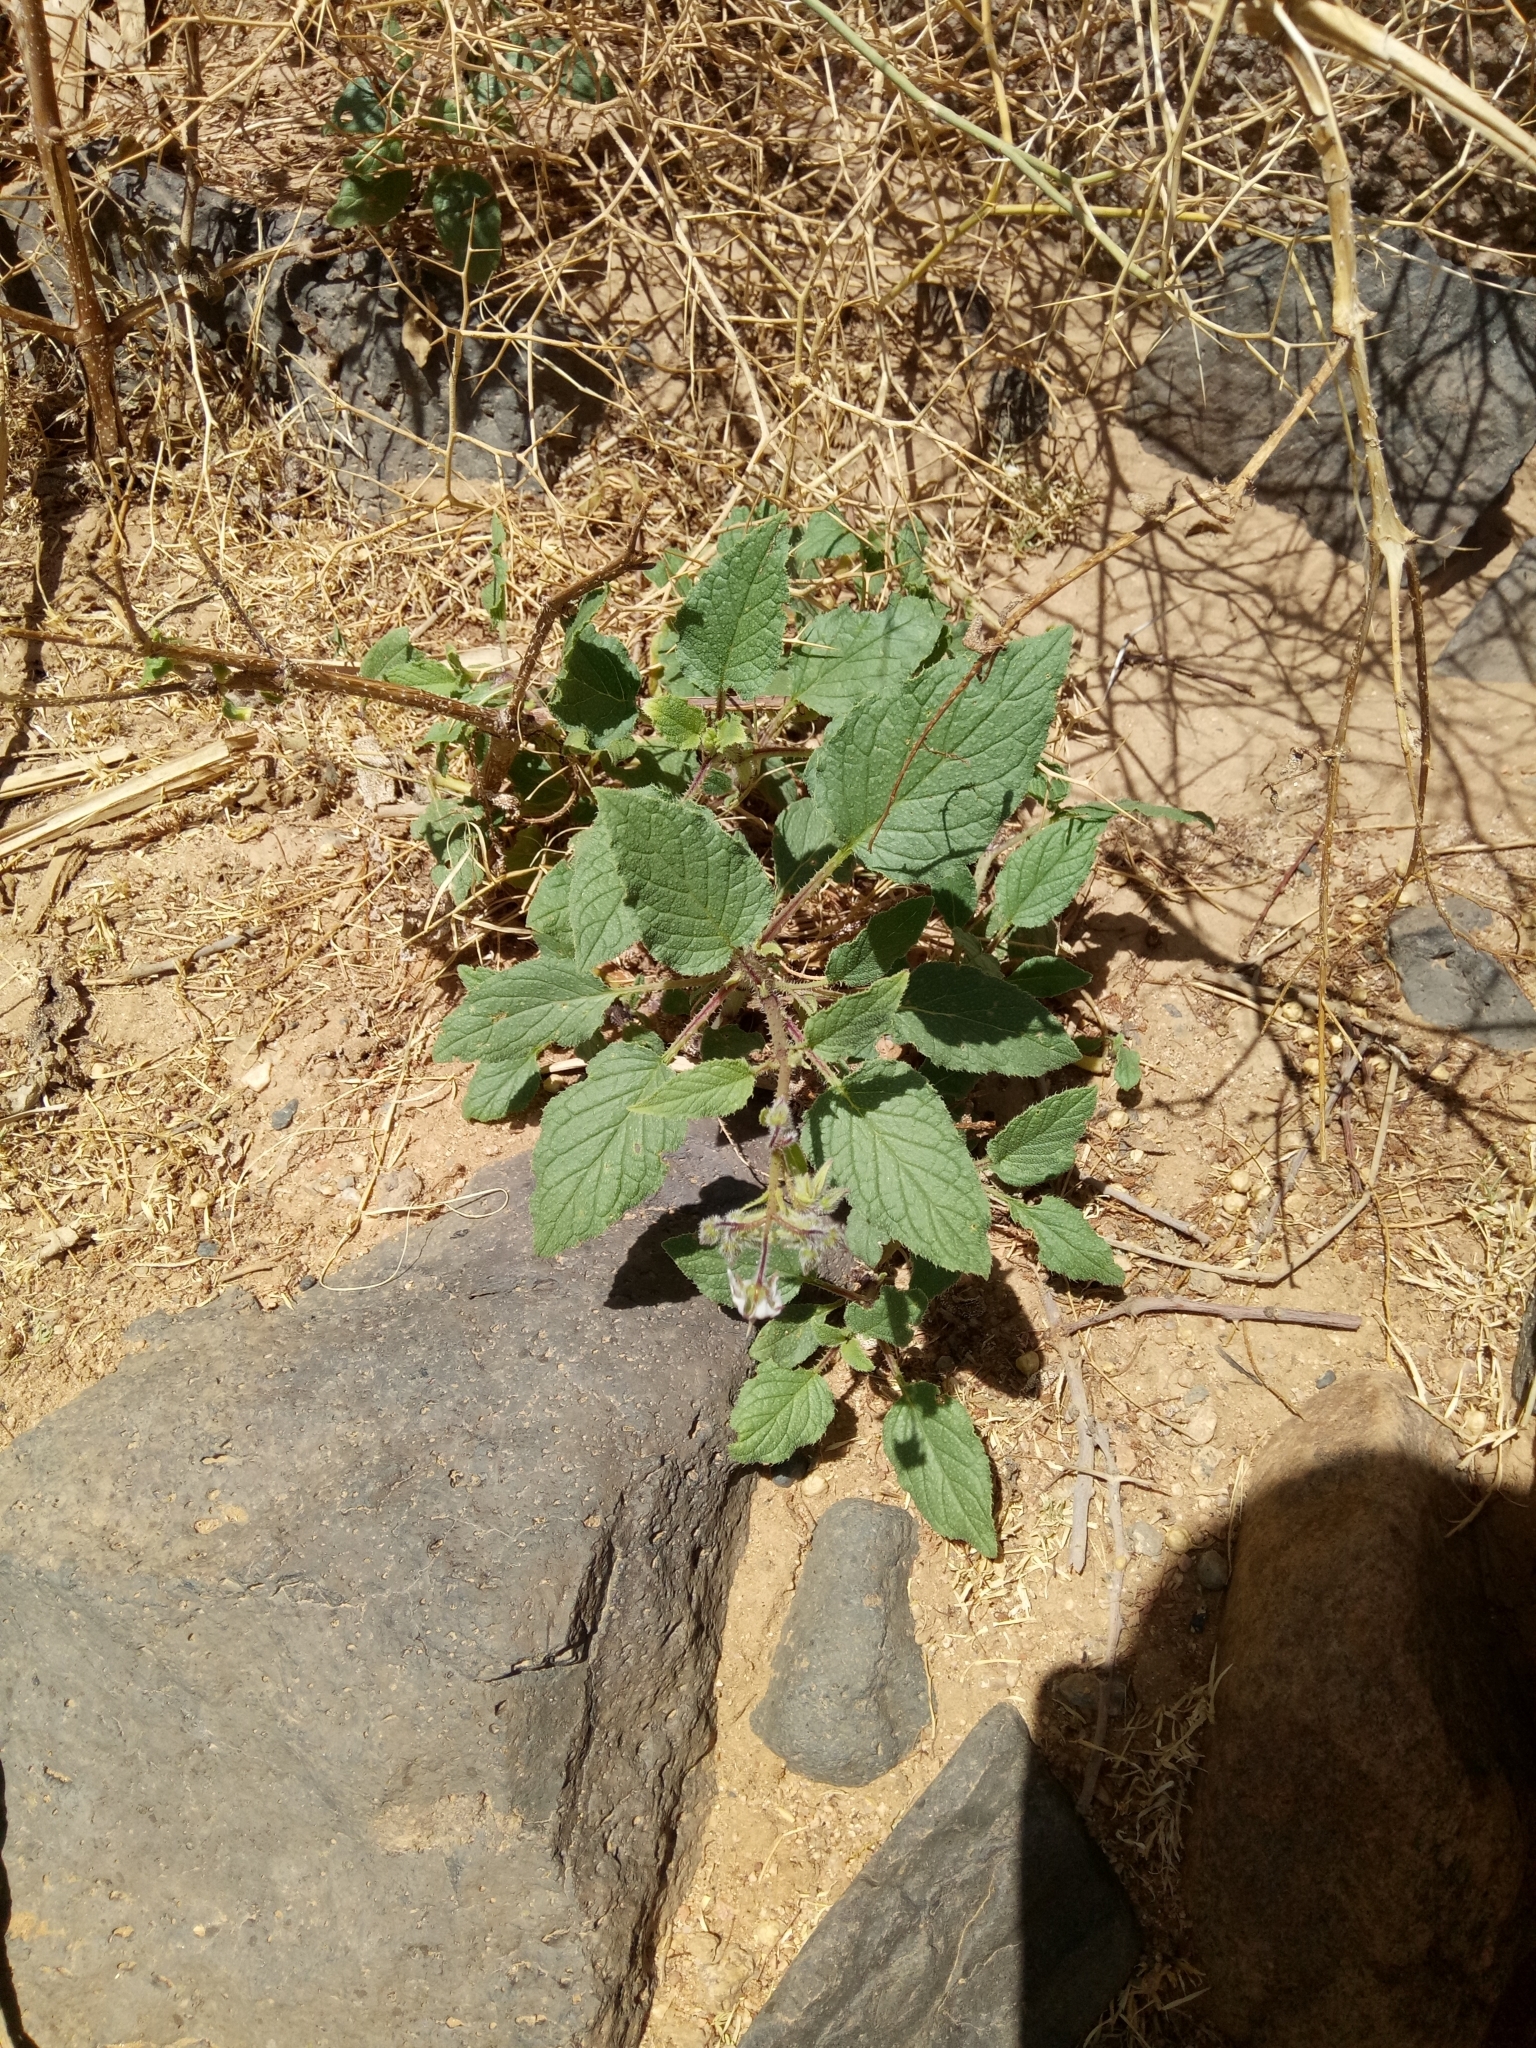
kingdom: Plantae
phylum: Tracheophyta
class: Magnoliopsida
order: Boraginales
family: Boraginaceae
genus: Trichodesma
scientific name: Trichodesma africanum
